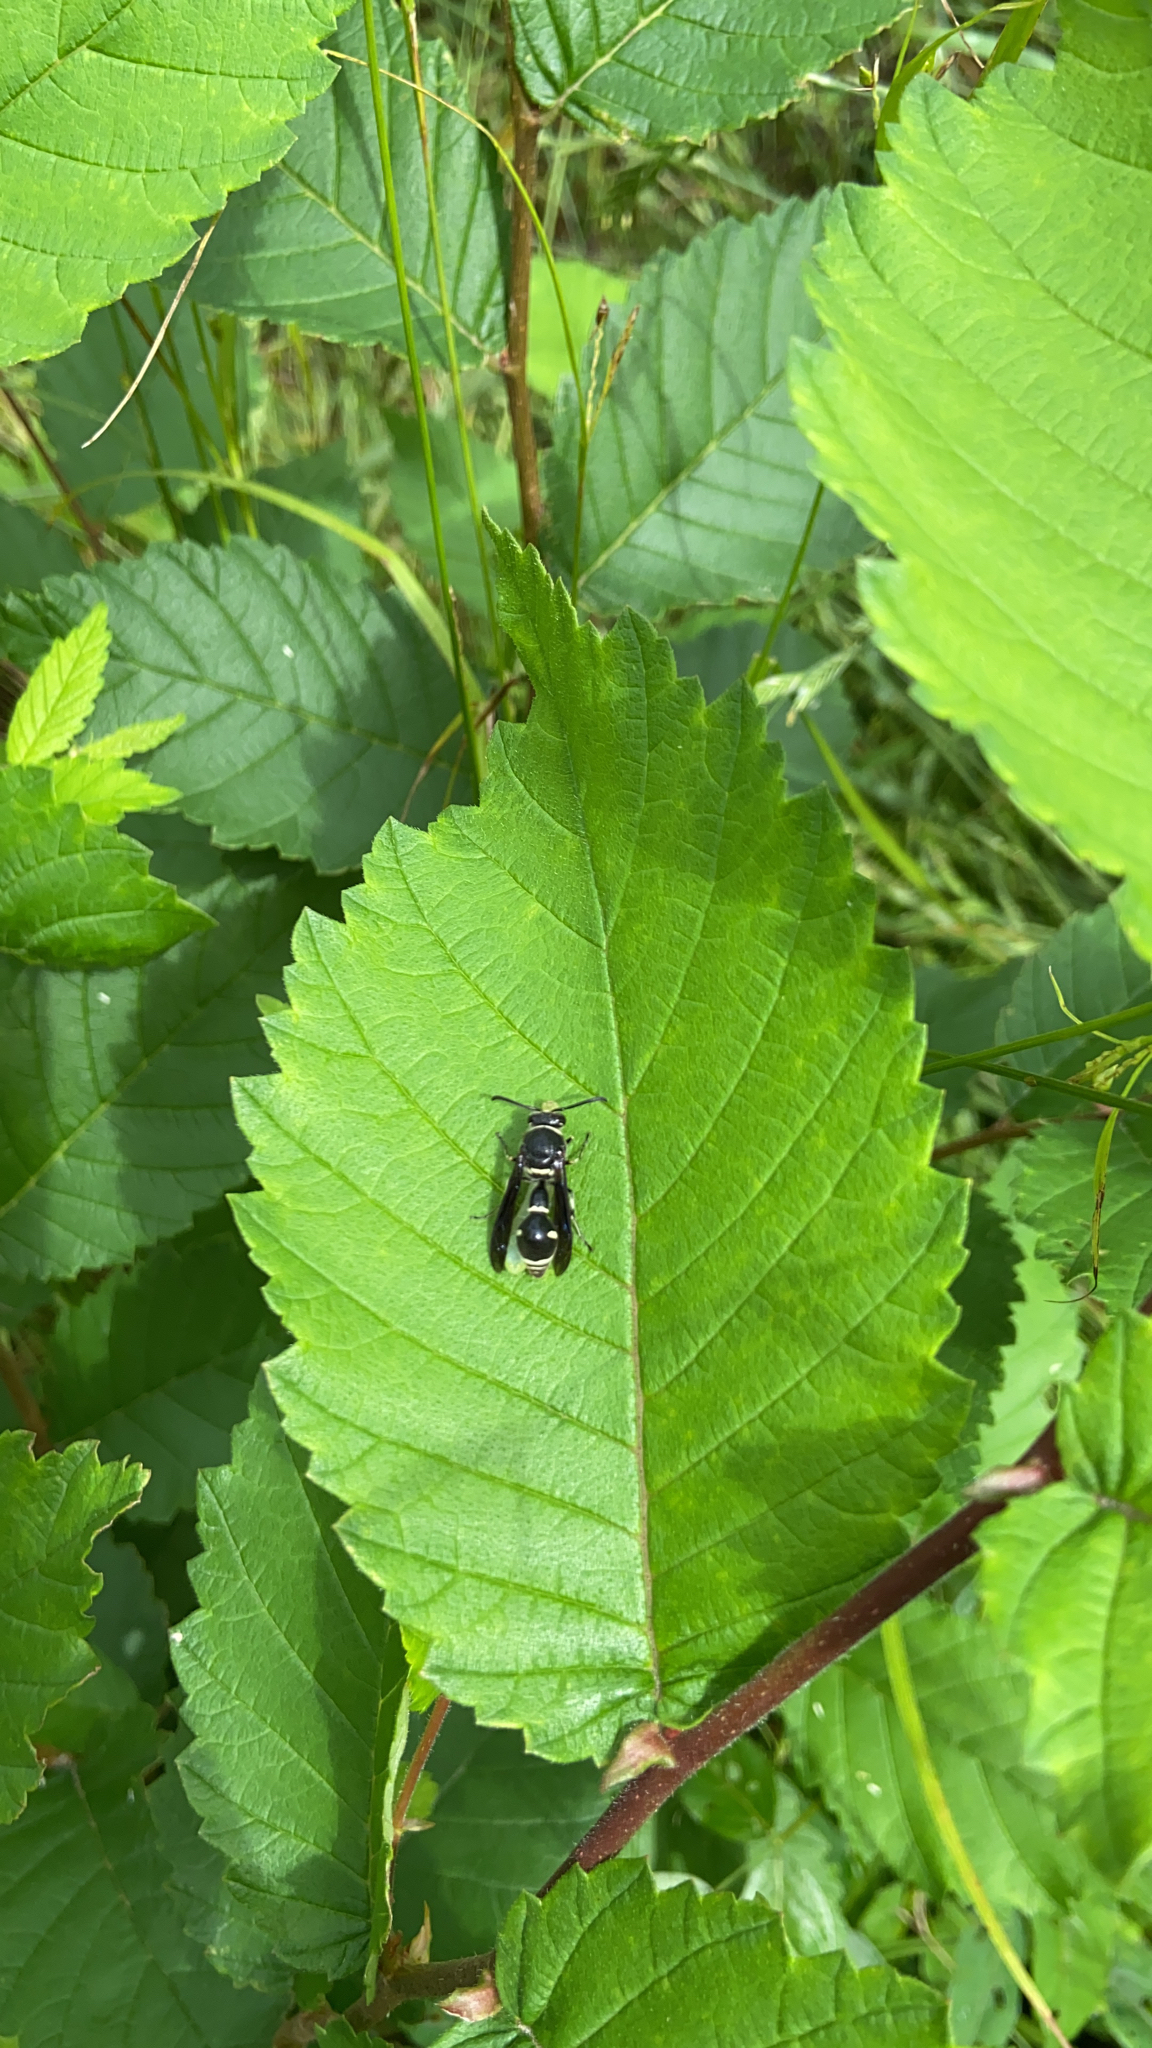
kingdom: Animalia
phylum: Arthropoda
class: Insecta
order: Hymenoptera
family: Vespidae
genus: Eumenes
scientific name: Eumenes fraternus
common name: Fraternal potter wasp
